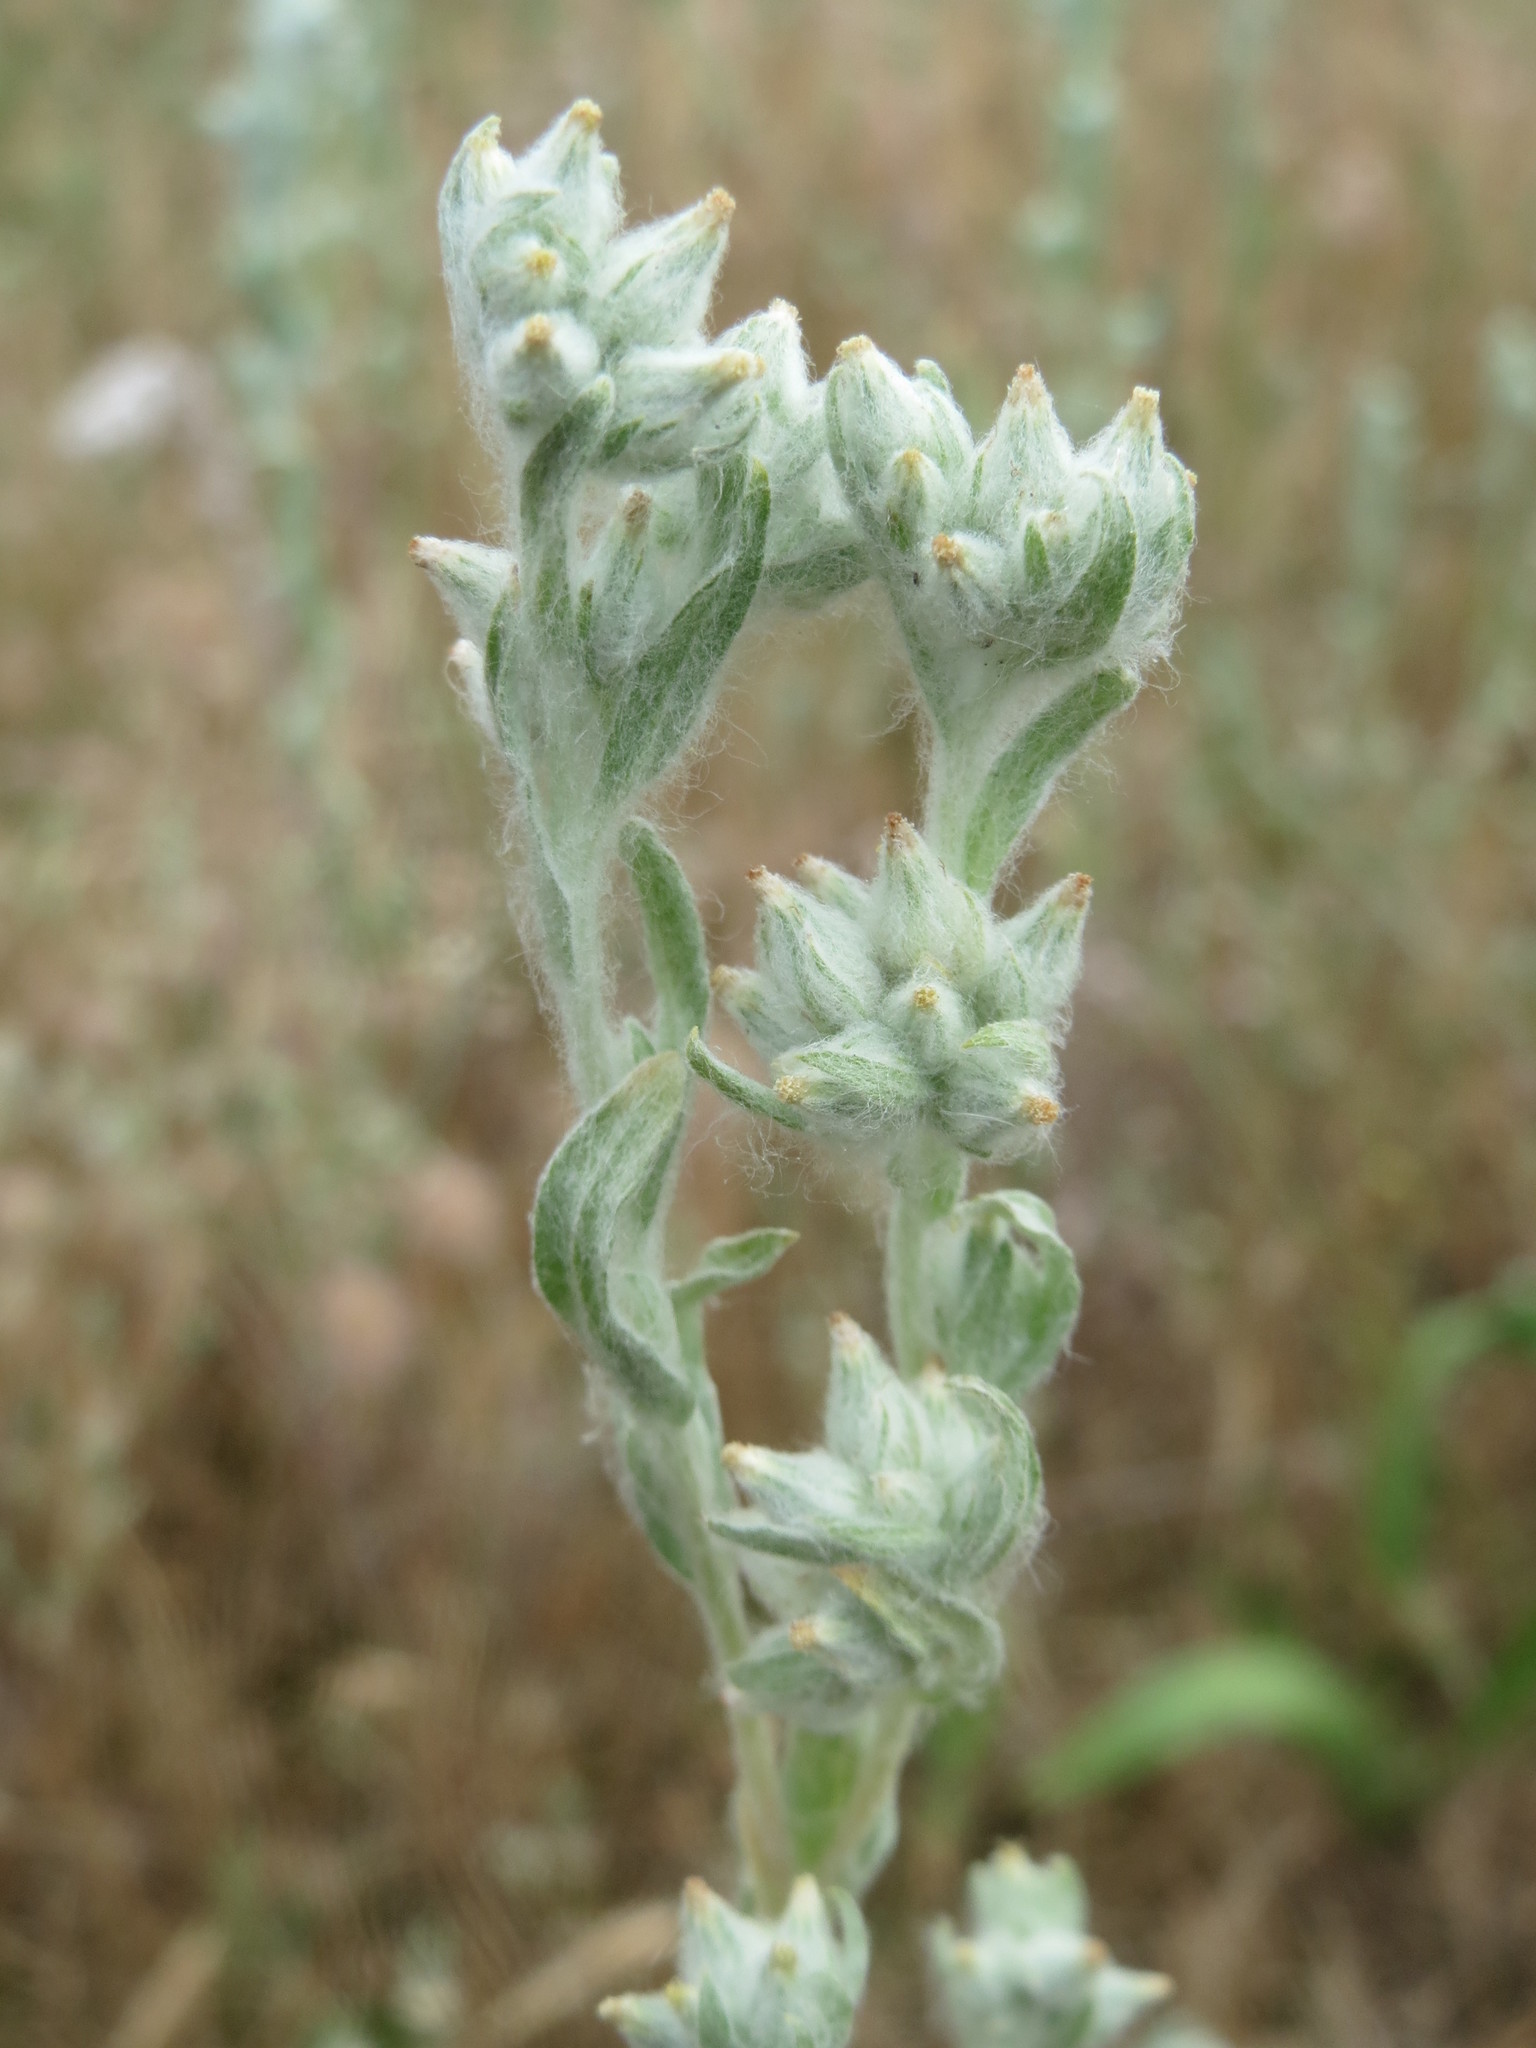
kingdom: Plantae
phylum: Tracheophyta
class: Magnoliopsida
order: Asterales
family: Asteraceae
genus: Filago
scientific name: Filago arvensis
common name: Field cudweed
